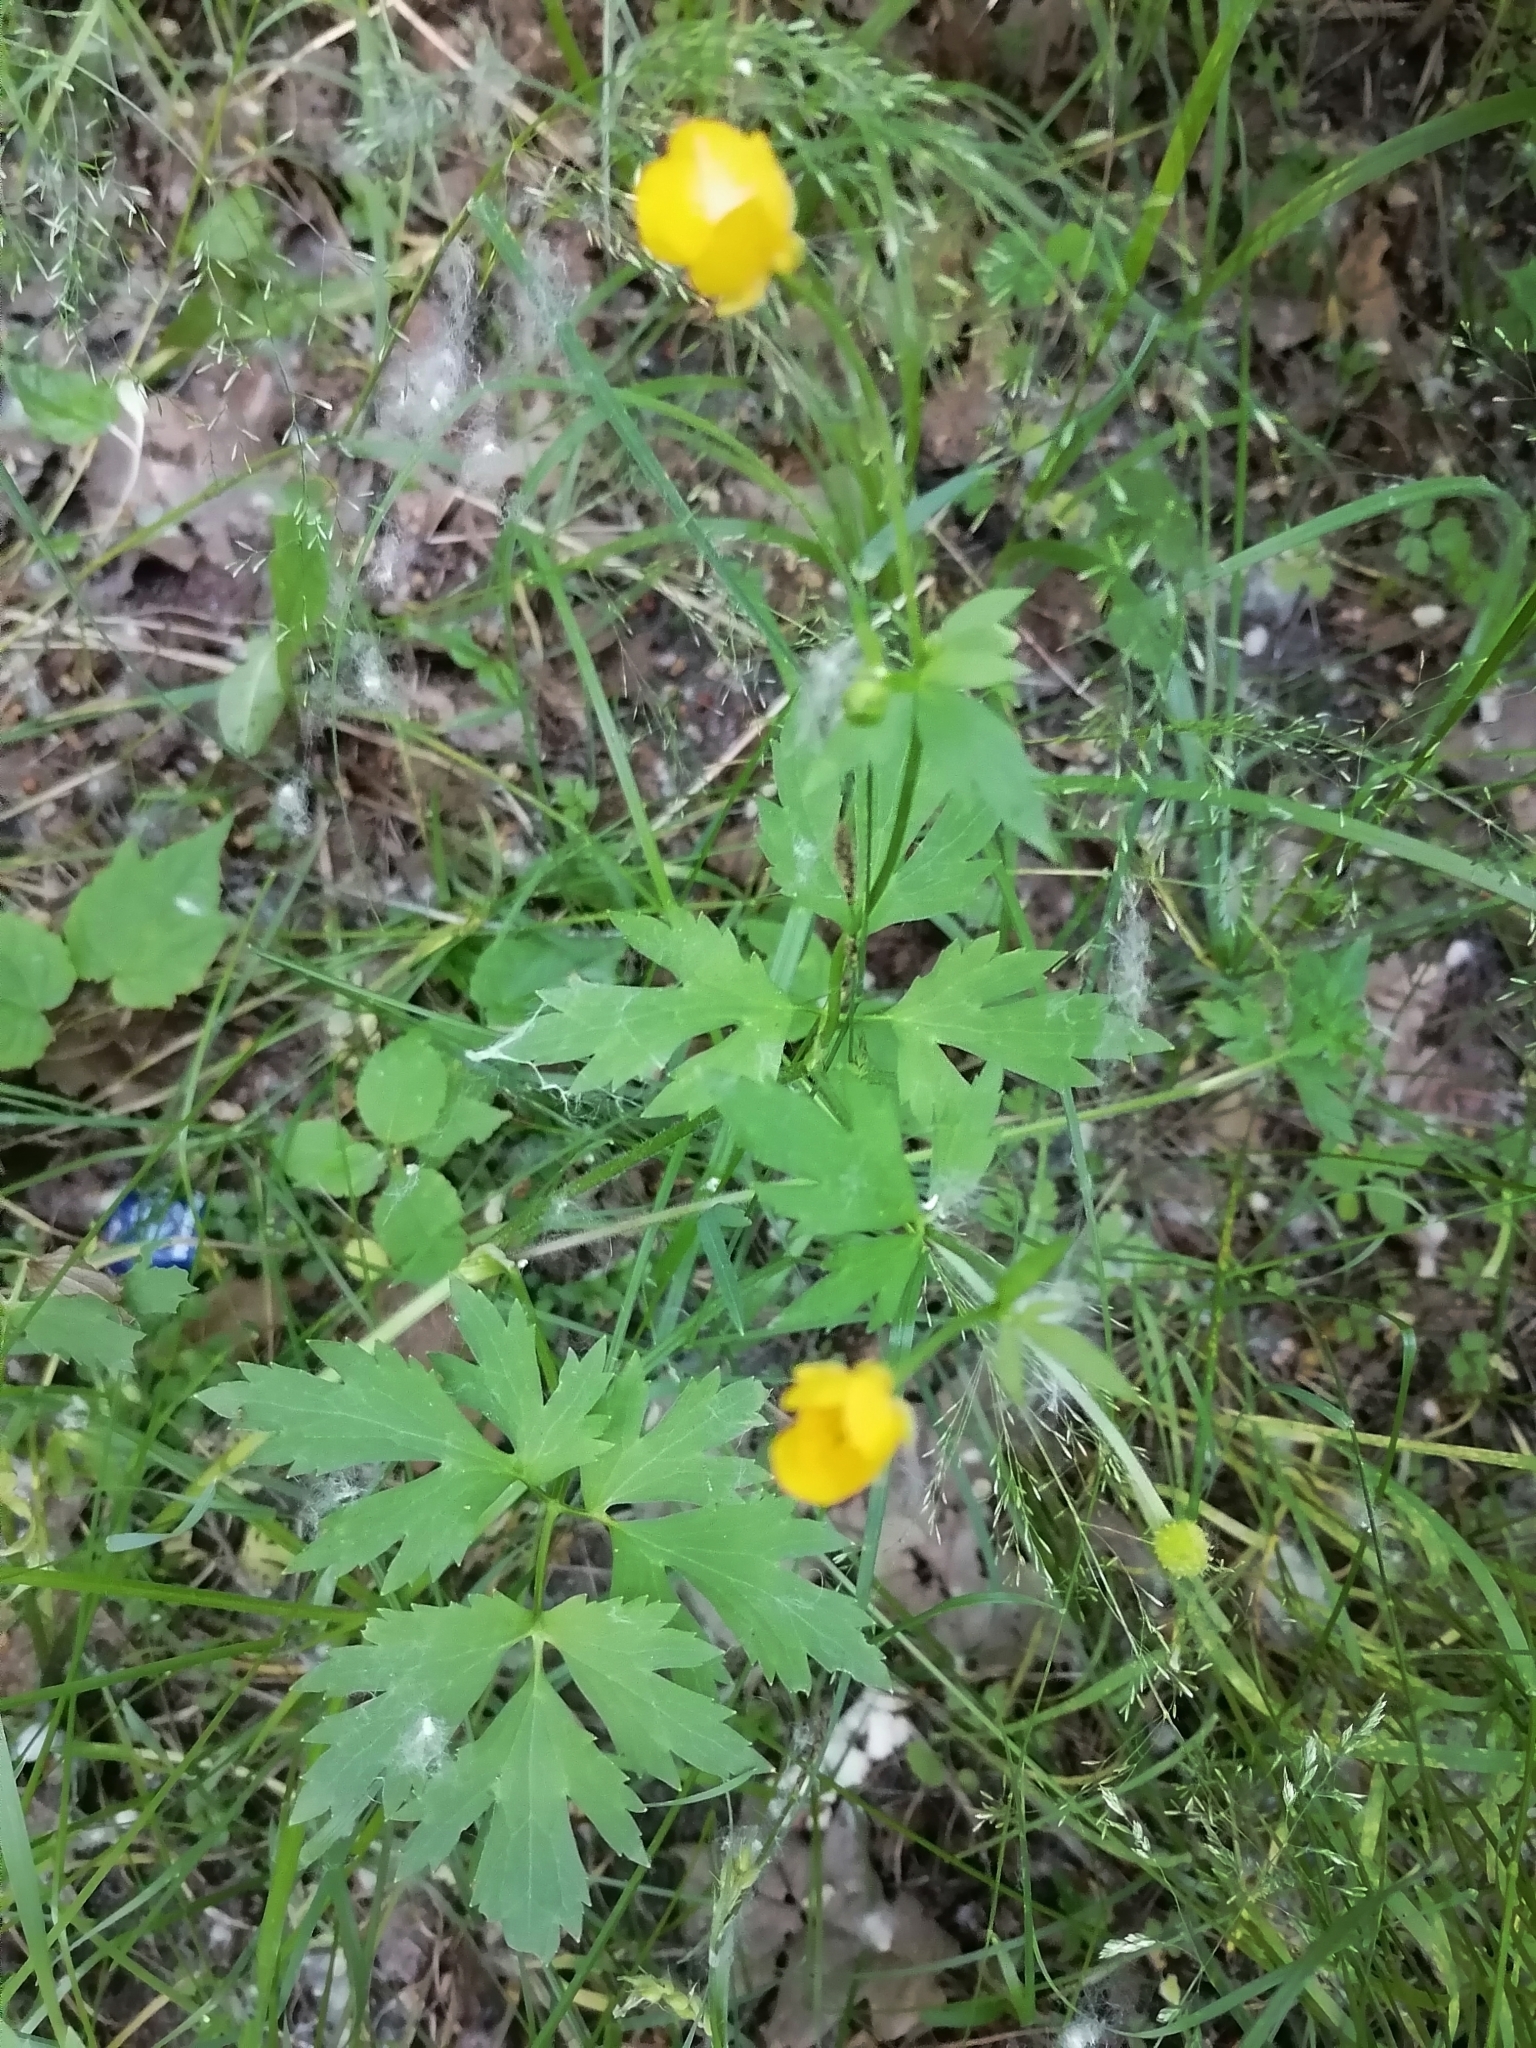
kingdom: Plantae
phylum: Tracheophyta
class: Magnoliopsida
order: Ranunculales
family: Ranunculaceae
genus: Ranunculus
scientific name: Ranunculus repens
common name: Creeping buttercup
